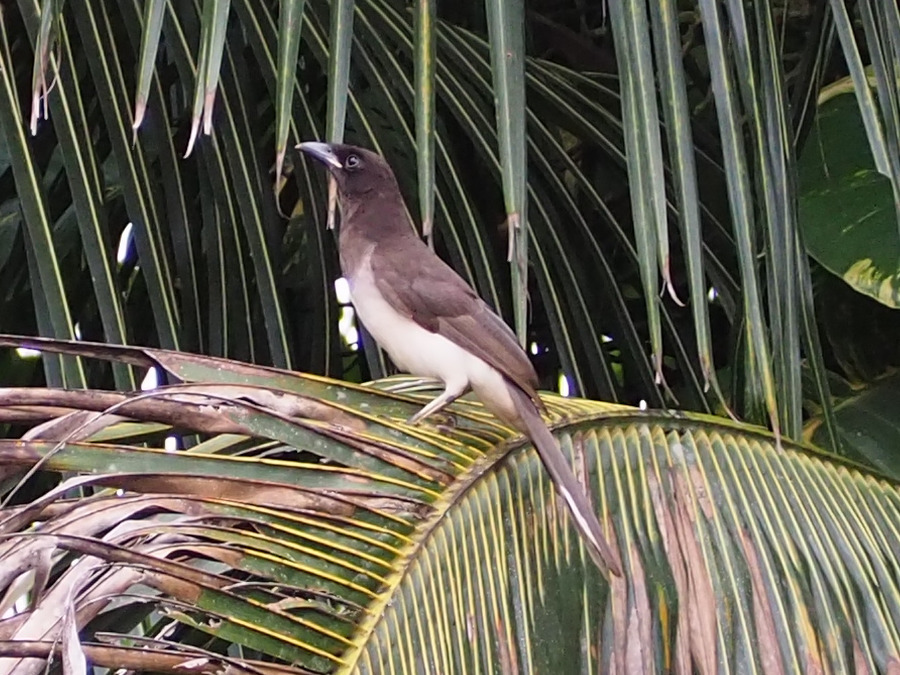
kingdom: Animalia
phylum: Chordata
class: Aves
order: Passeriformes
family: Corvidae
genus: Psilorhinus
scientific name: Psilorhinus morio
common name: Brown jay
